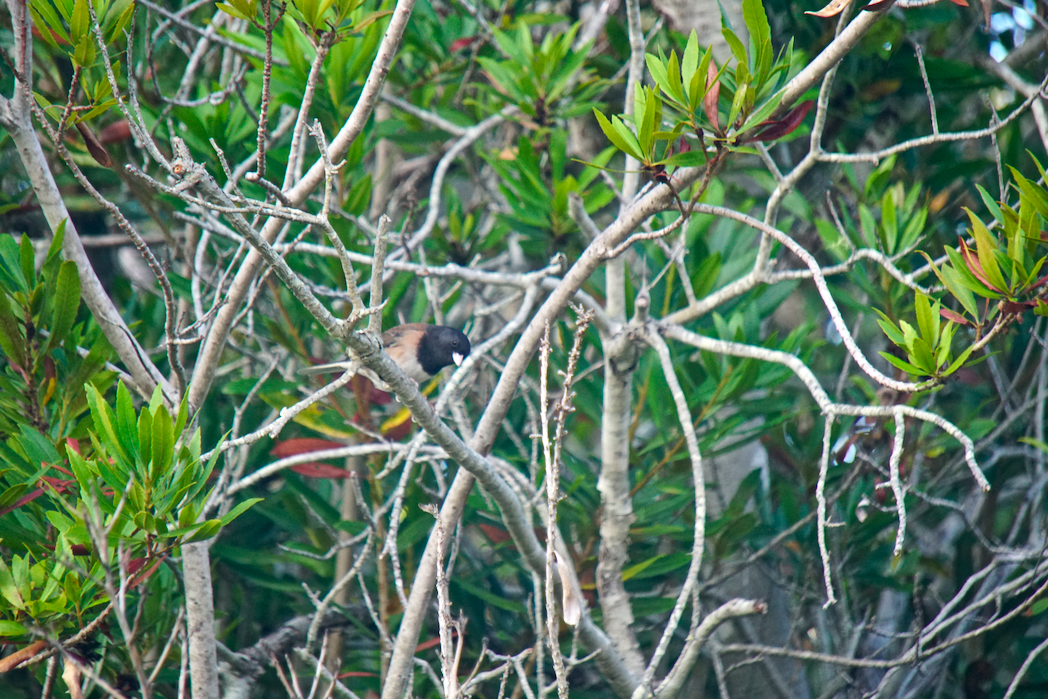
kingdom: Animalia
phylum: Chordata
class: Aves
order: Passeriformes
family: Passerellidae
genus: Junco
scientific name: Junco hyemalis
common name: Dark-eyed junco
